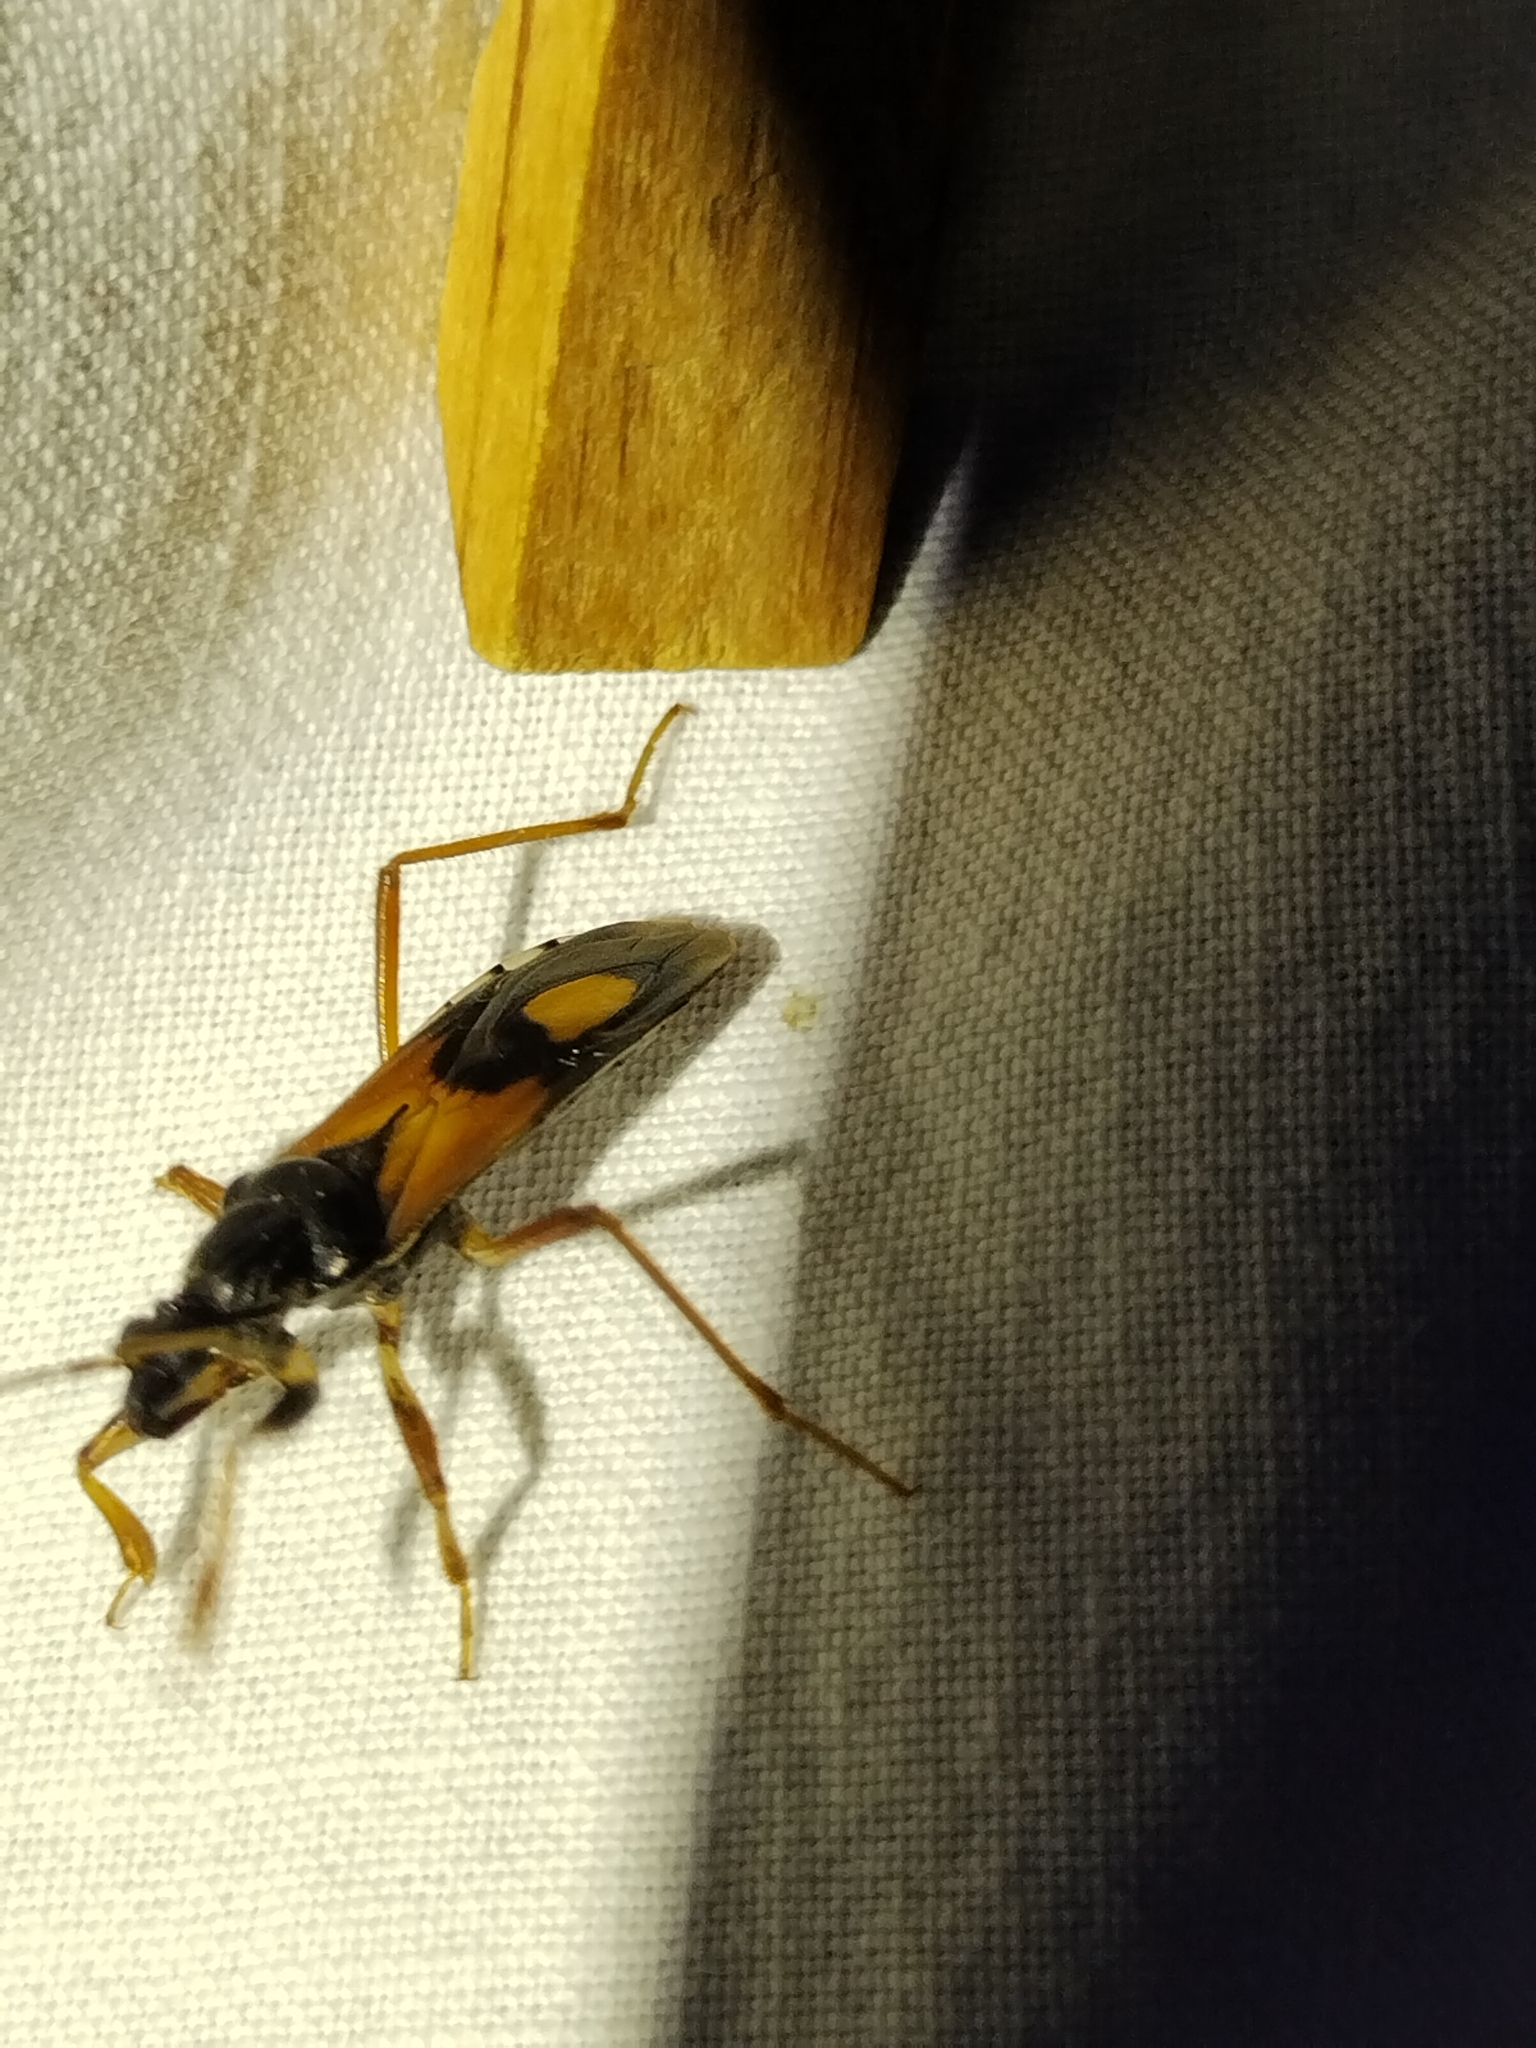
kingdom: Animalia
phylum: Arthropoda
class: Insecta
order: Hemiptera
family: Reduviidae
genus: Rasahus
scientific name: Rasahus biguttatus
